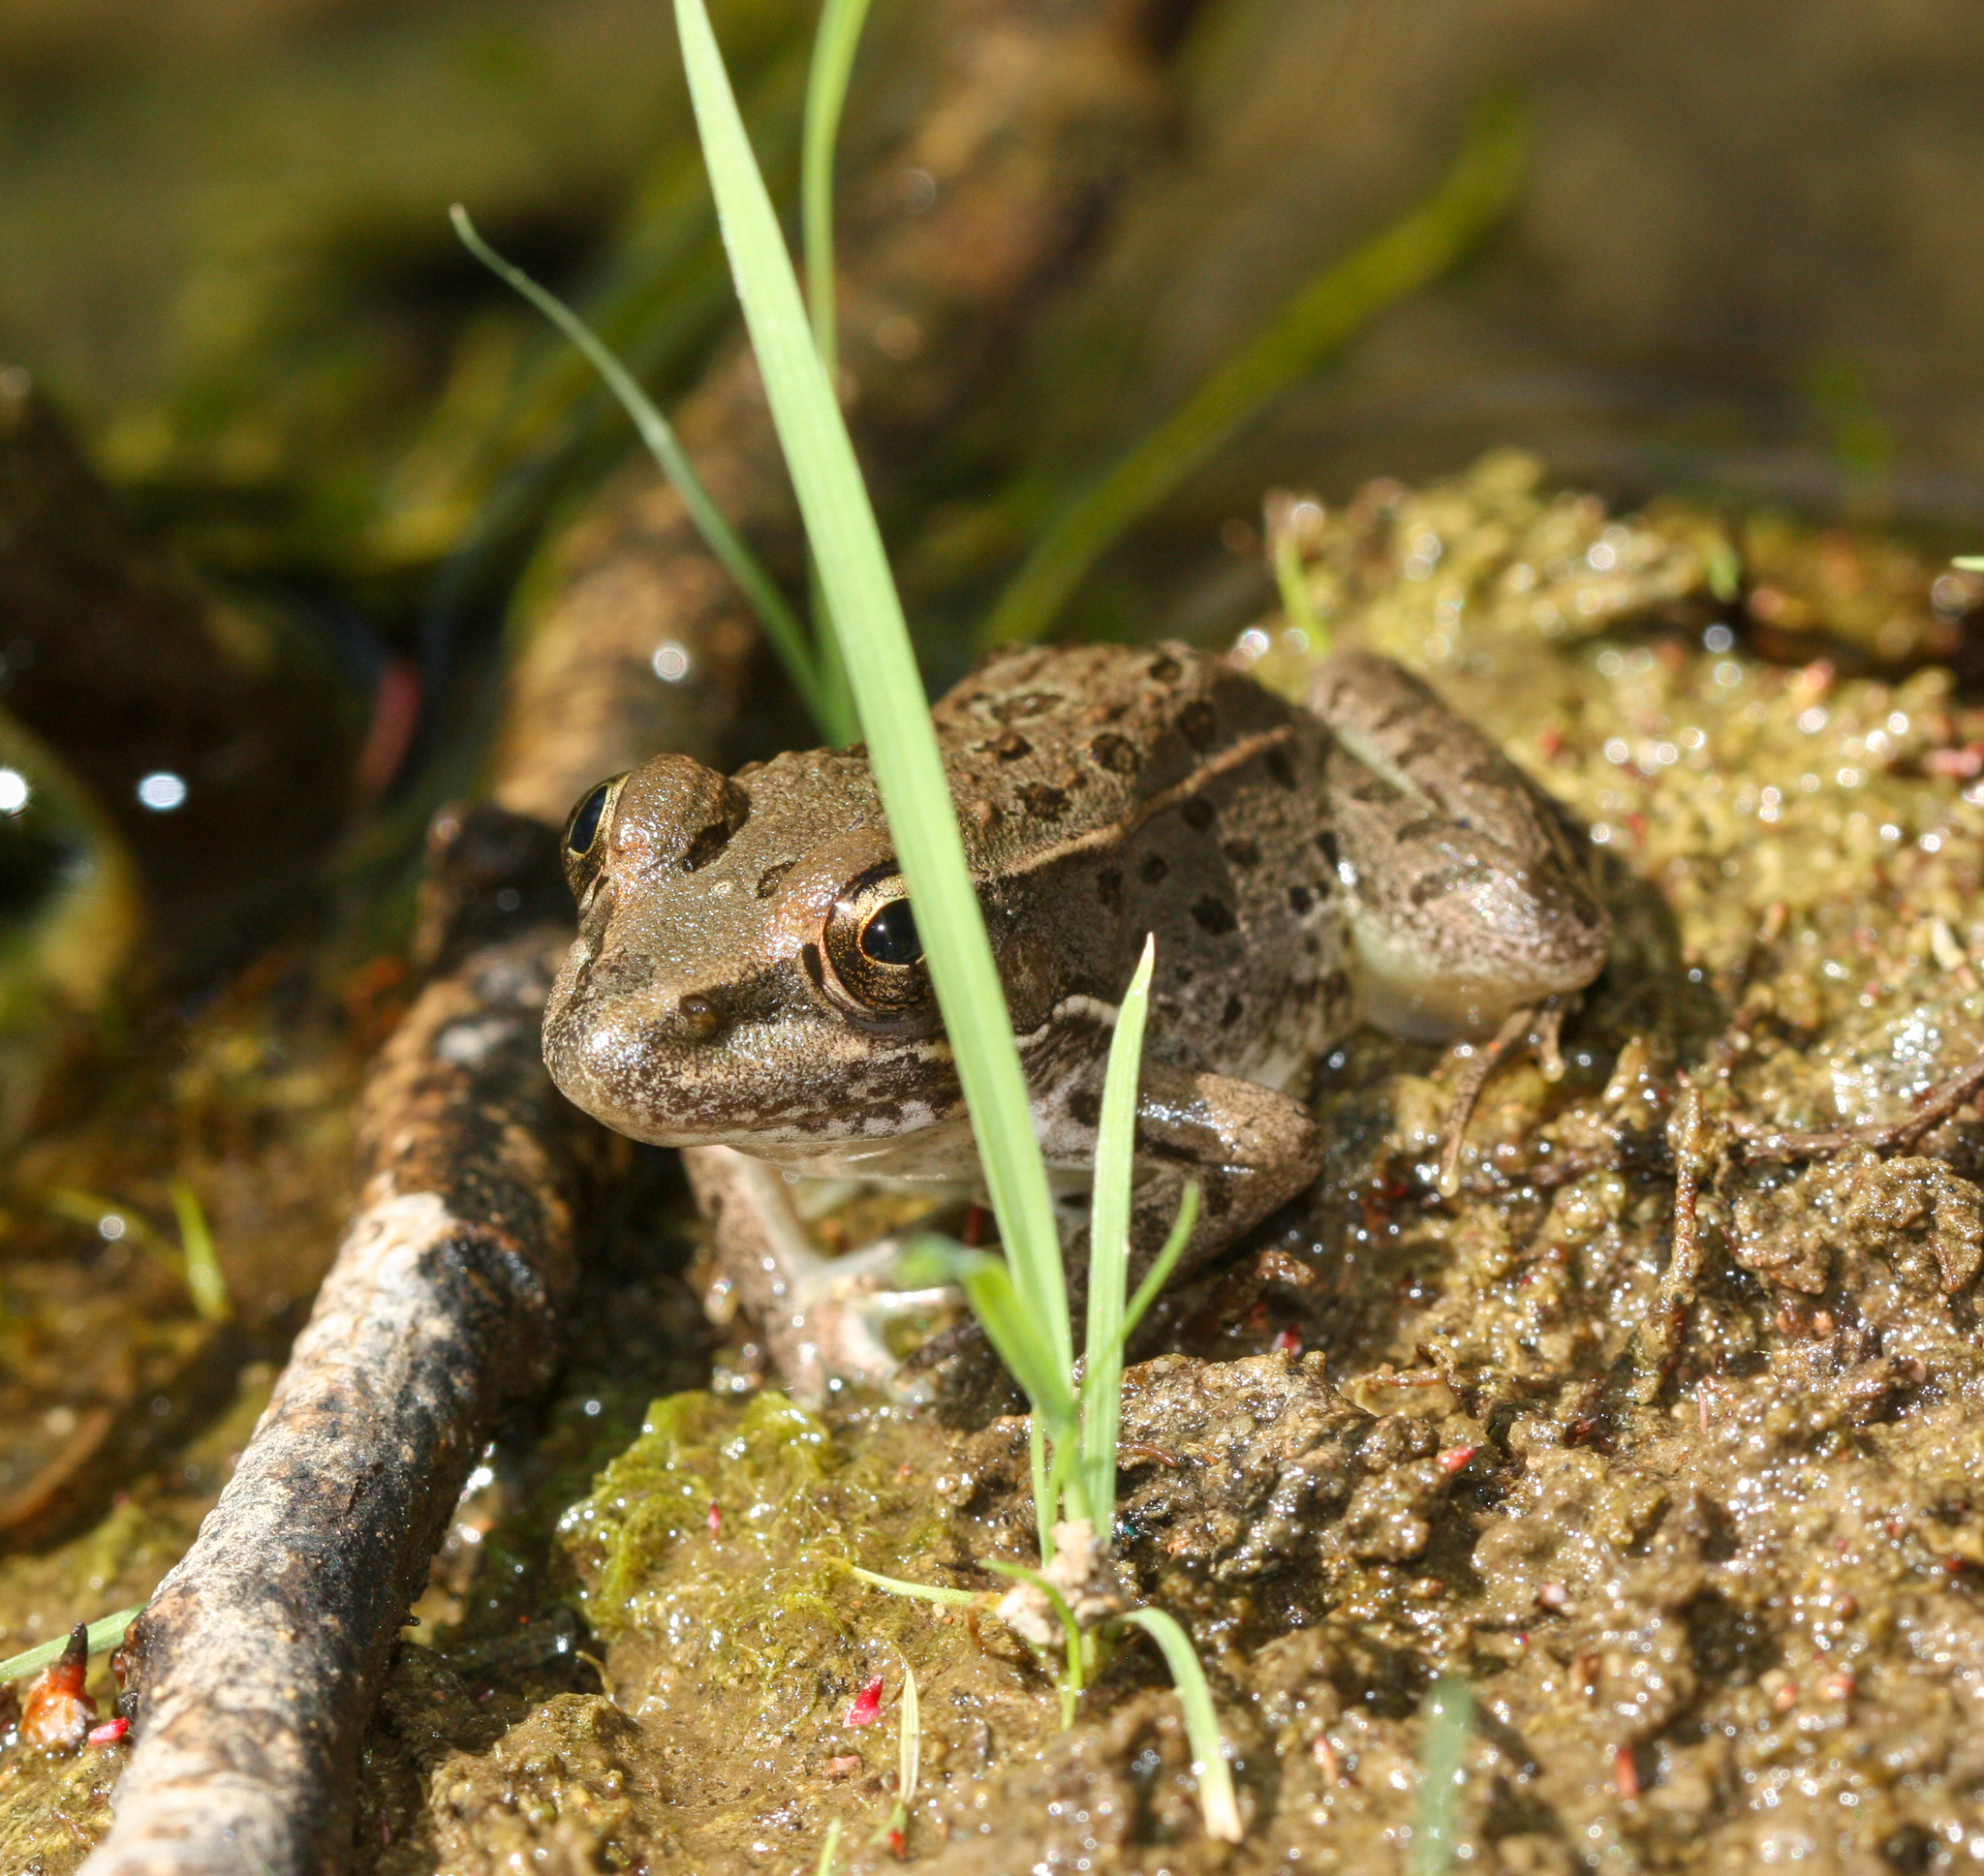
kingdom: Animalia
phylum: Chordata
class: Amphibia
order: Anura
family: Ranidae
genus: Lithobates
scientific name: Lithobates yavapaiensis
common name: Lowland leopard frog
